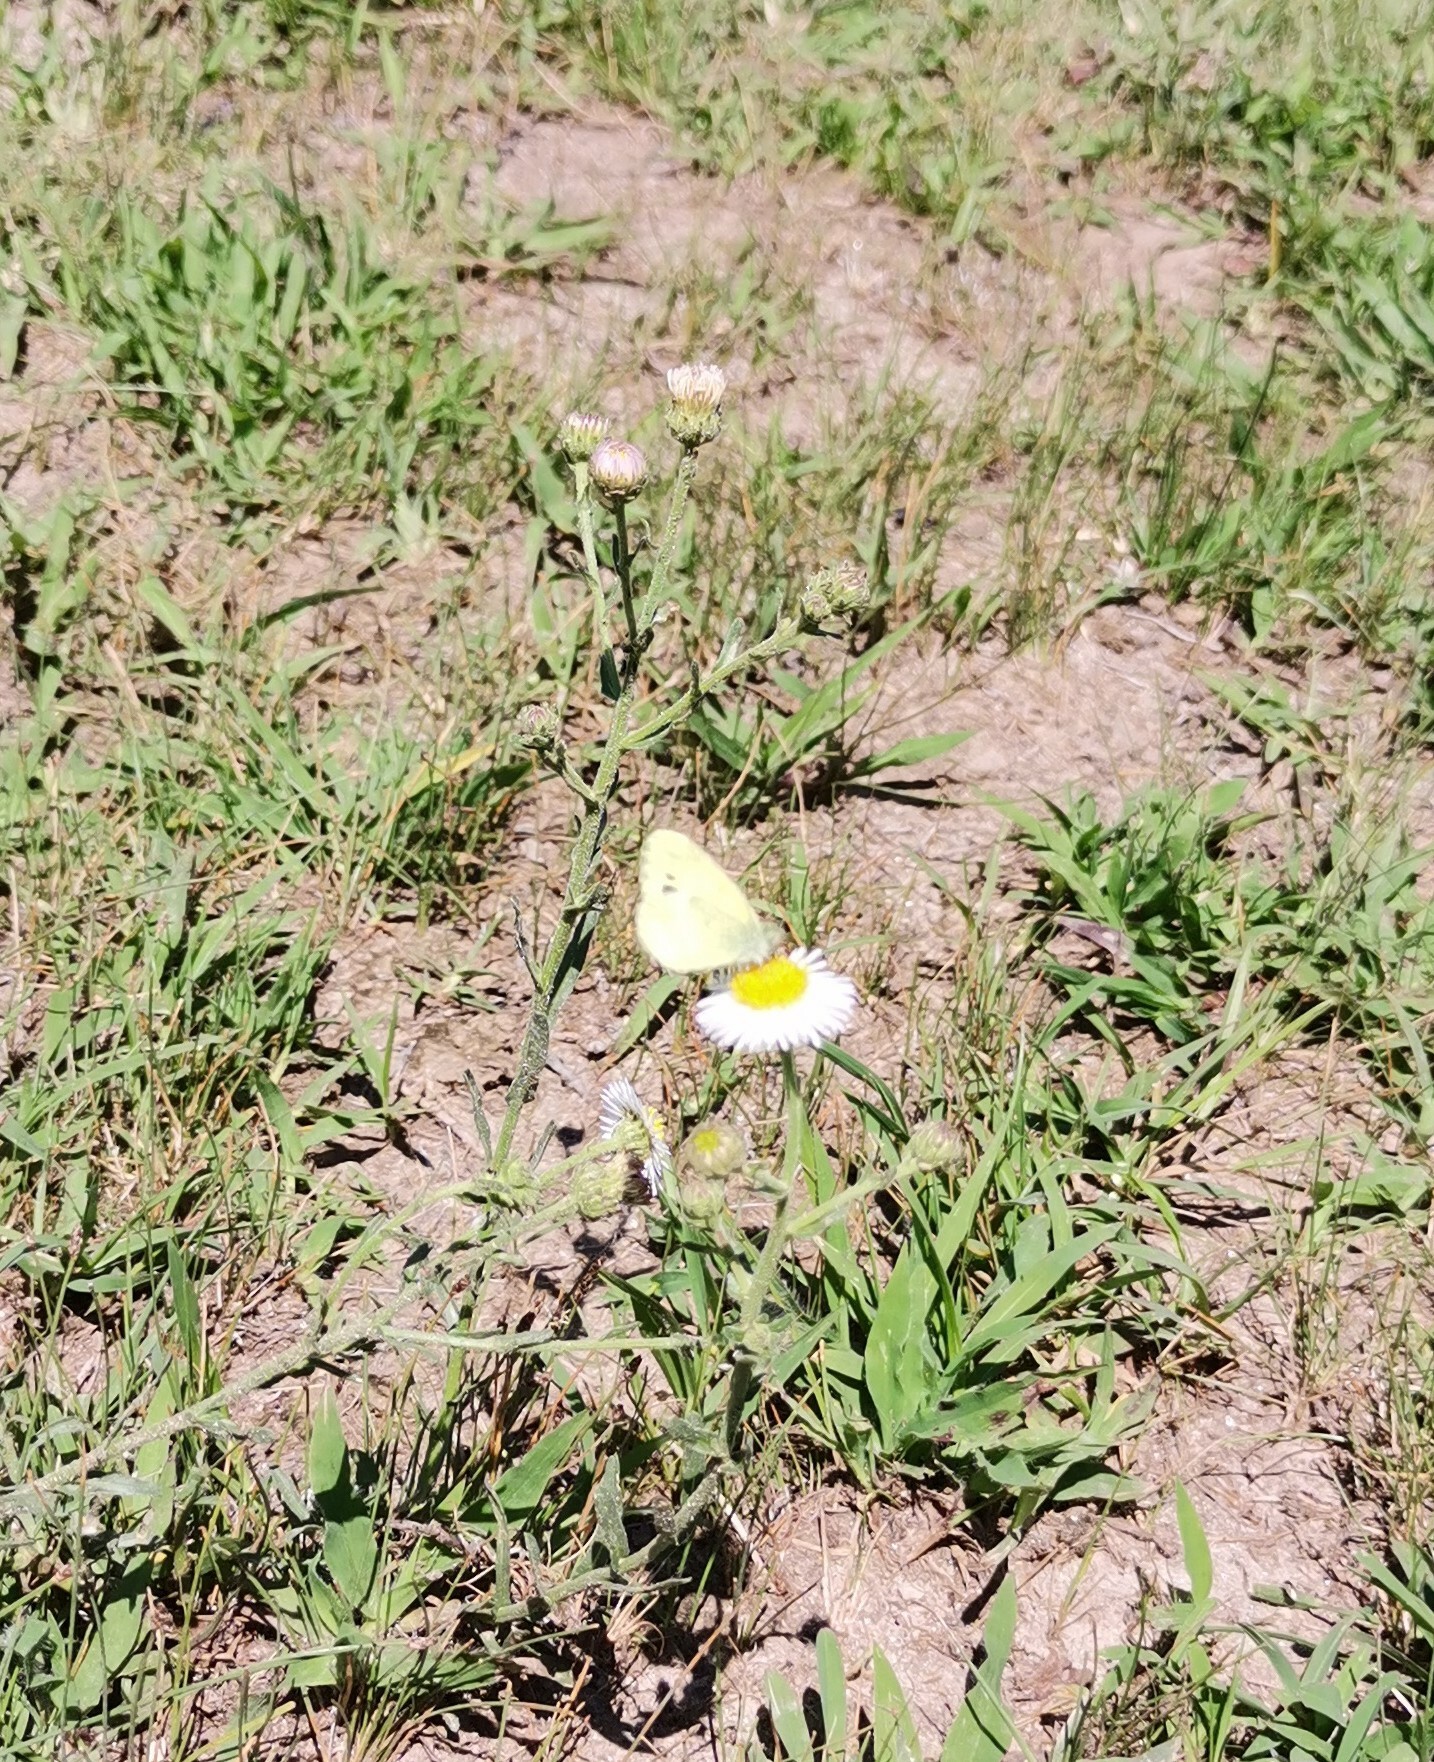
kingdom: Animalia
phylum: Arthropoda
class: Insecta
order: Lepidoptera
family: Pieridae
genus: Nathalis
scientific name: Nathalis iole
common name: Dainty sulphur
